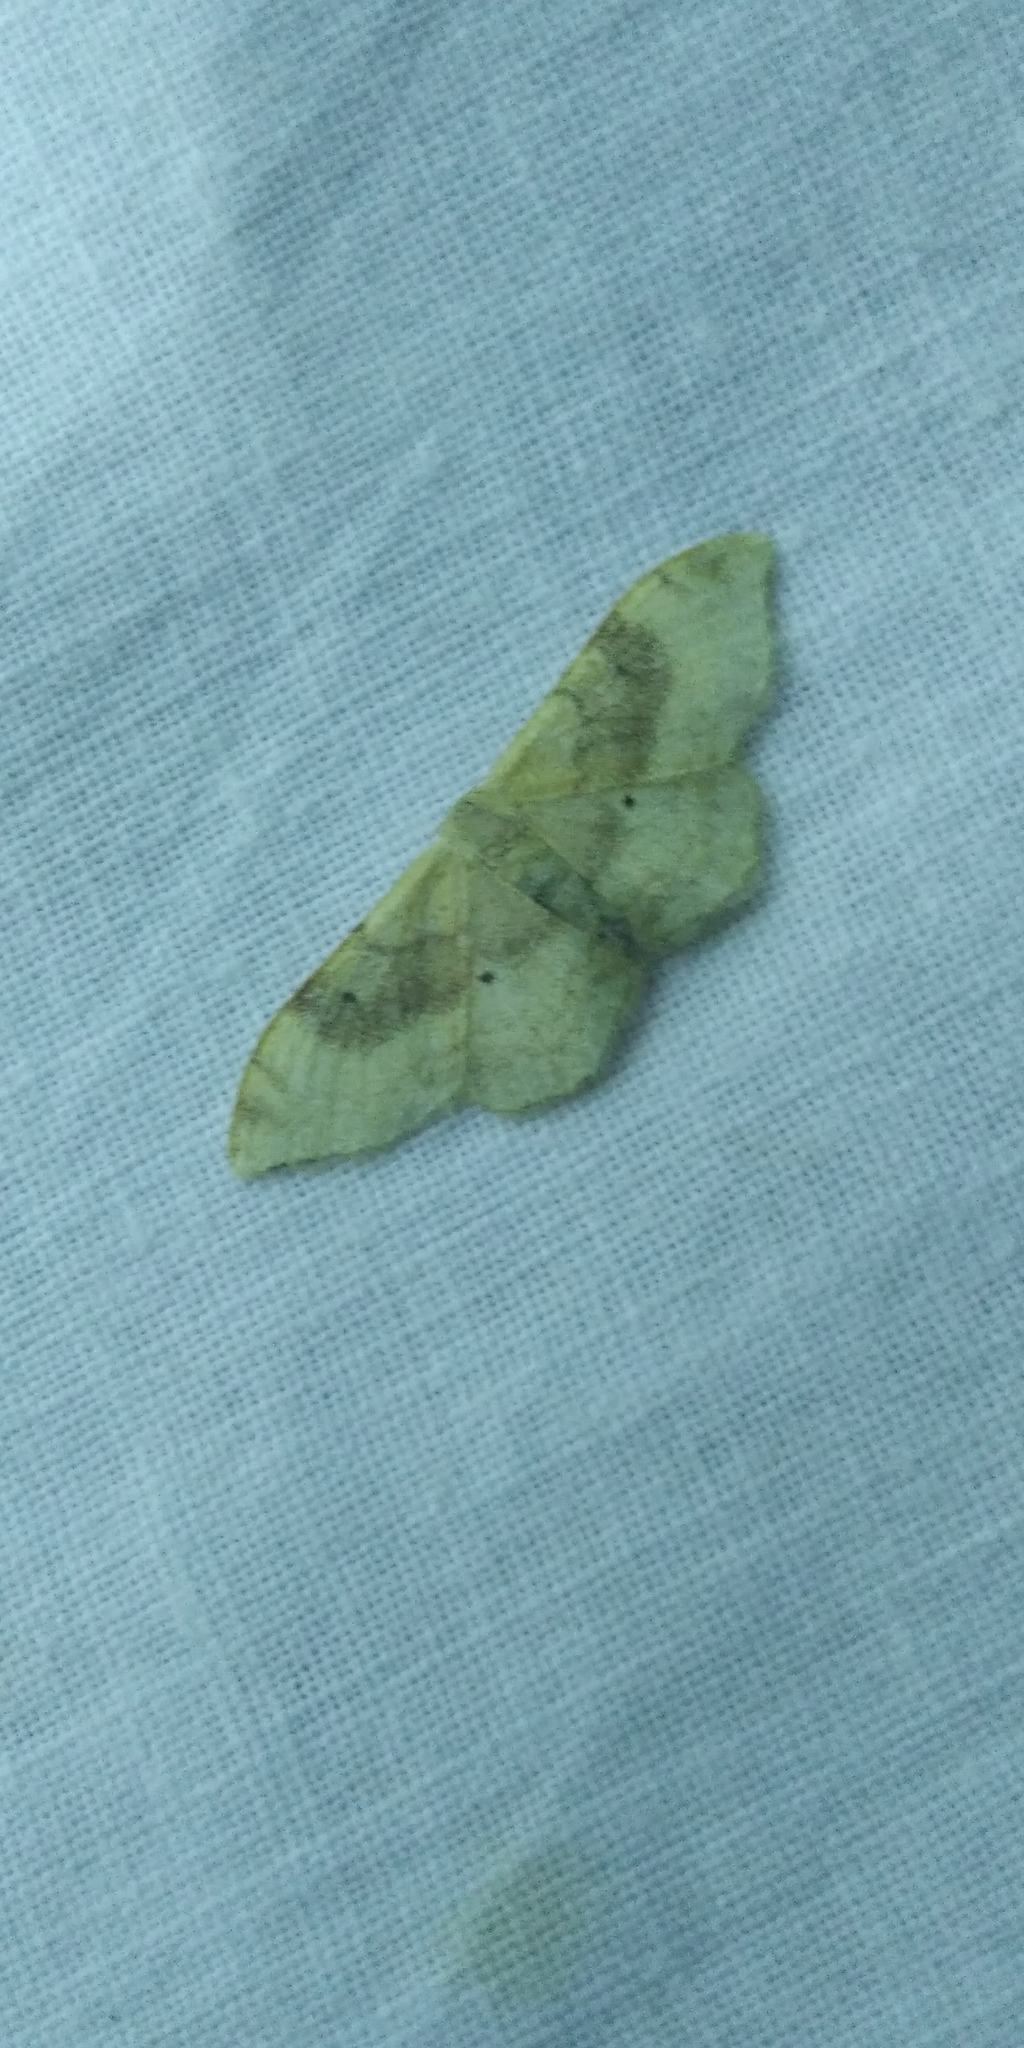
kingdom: Animalia
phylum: Arthropoda
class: Insecta
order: Lepidoptera
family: Geometridae
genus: Idaea
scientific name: Idaea degeneraria
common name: Portland ribbon wave
